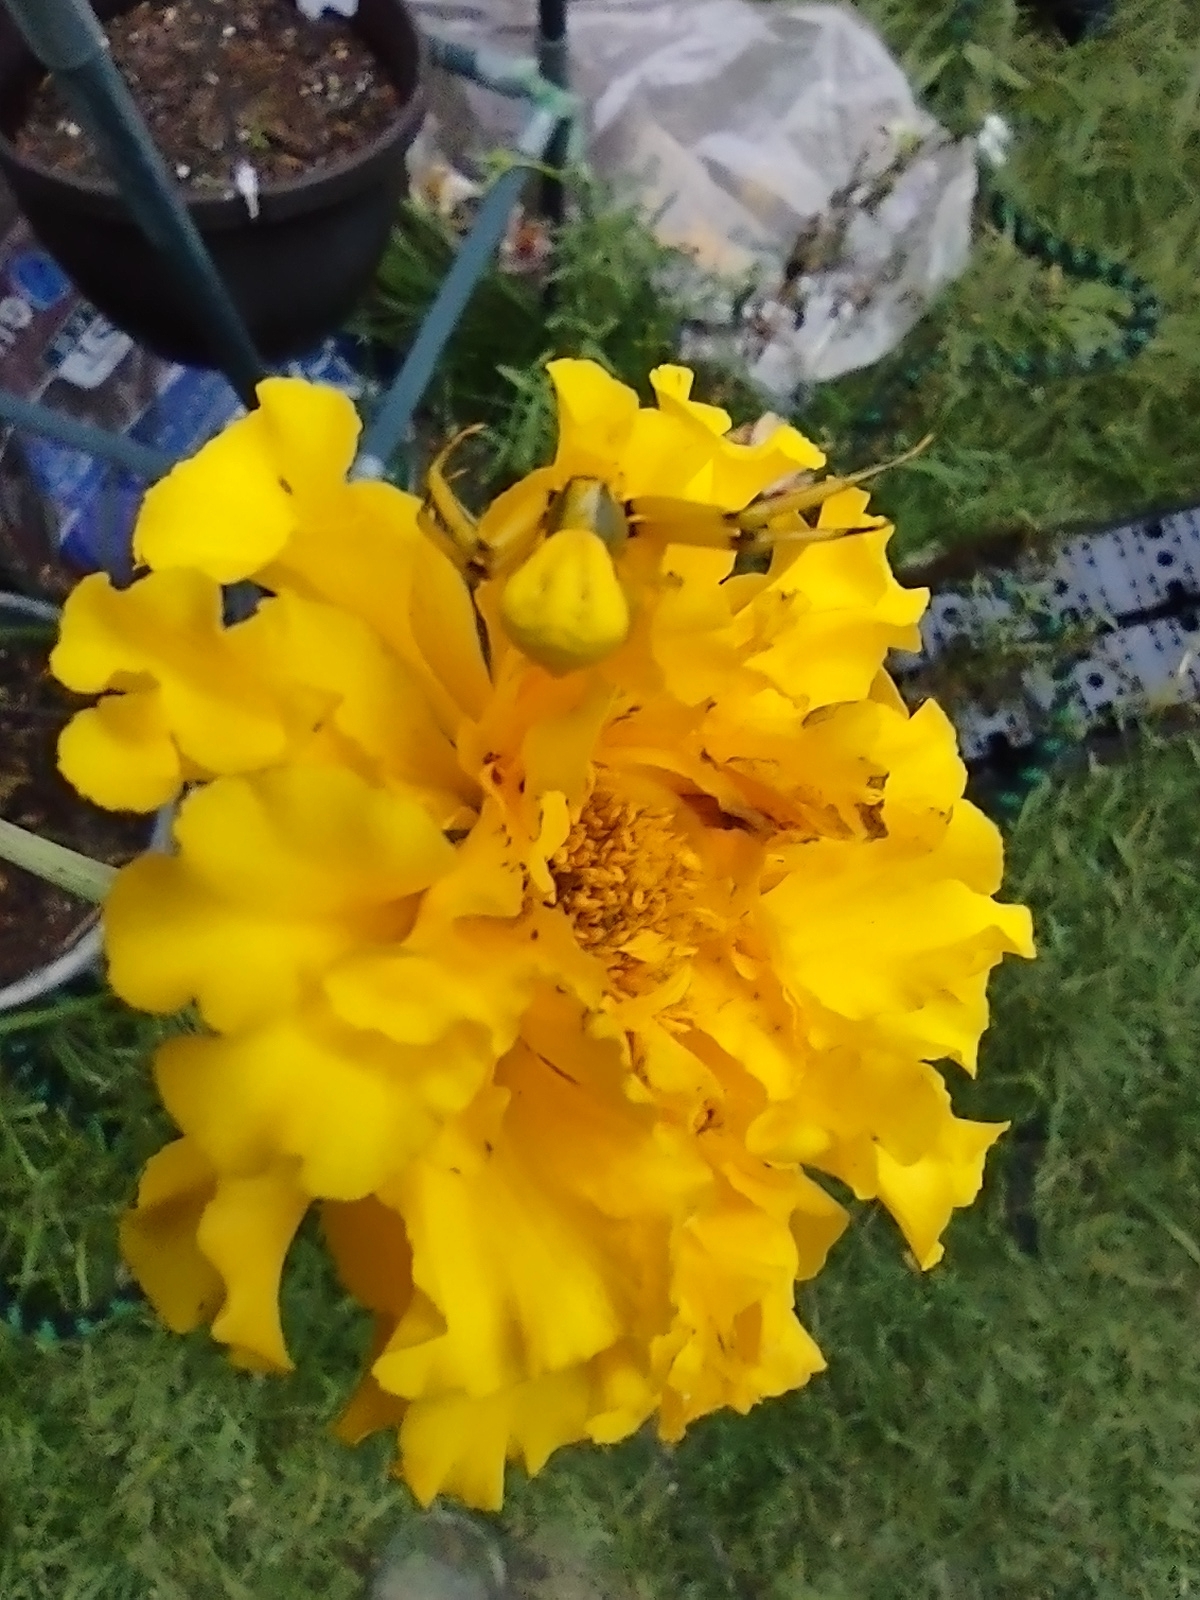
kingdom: Animalia
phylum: Arthropoda
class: Arachnida
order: Araneae
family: Thomisidae
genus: Misumenoides
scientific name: Misumenoides formosipes
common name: White-banded crab spider
